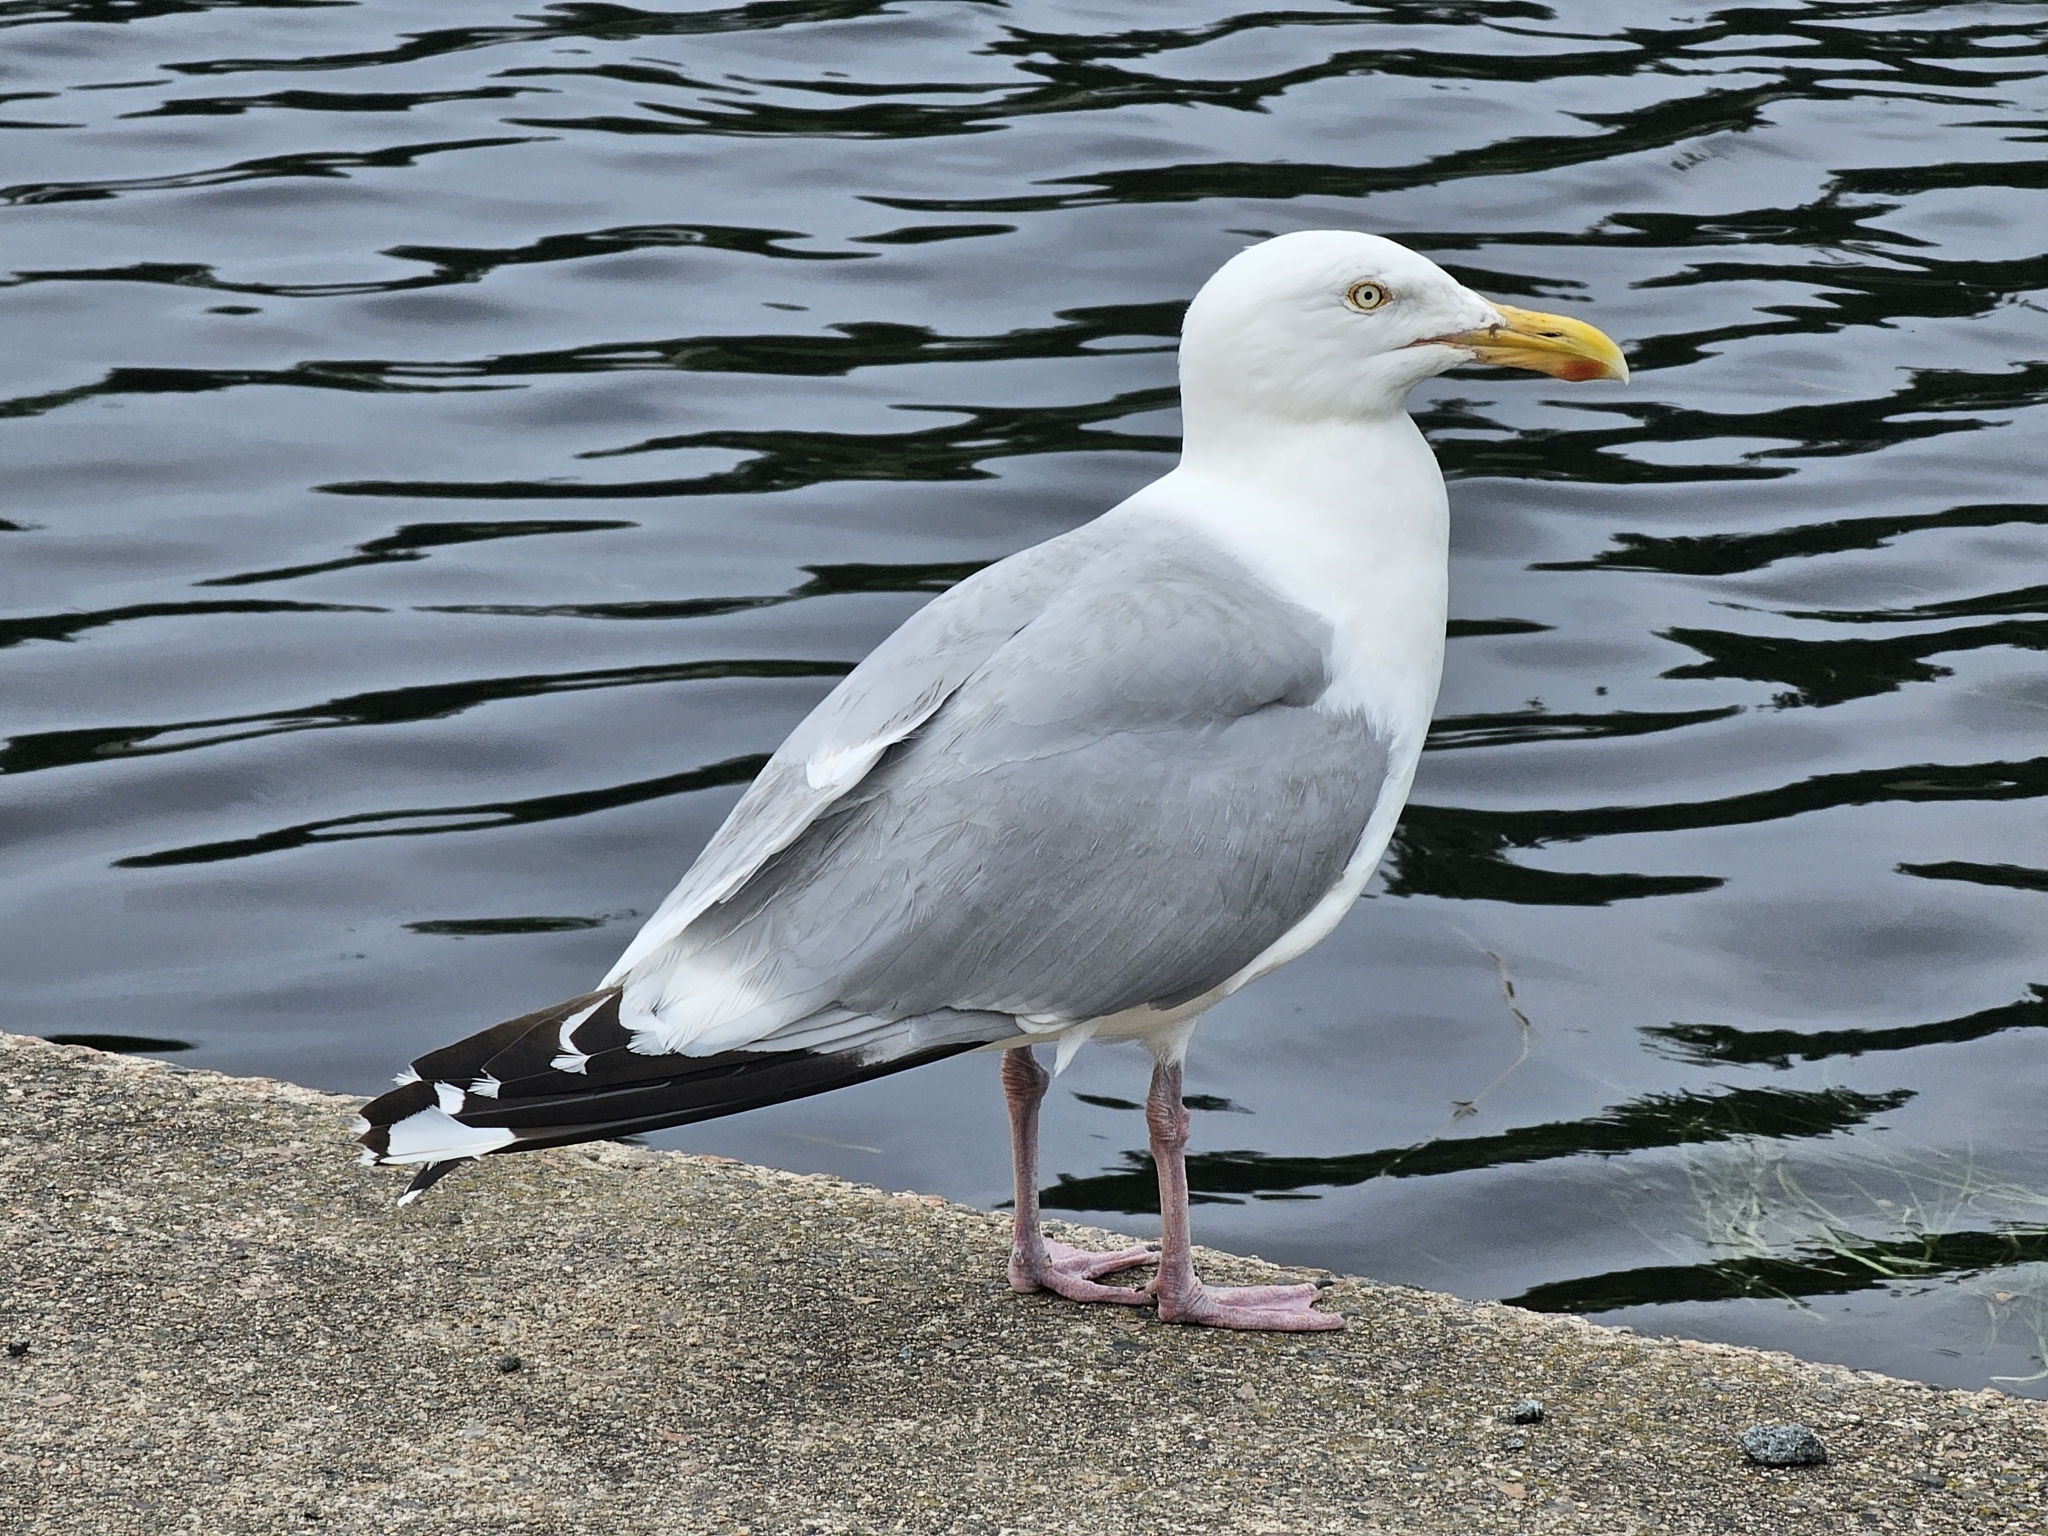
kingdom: Animalia
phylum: Chordata
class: Aves
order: Charadriiformes
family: Laridae
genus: Larus
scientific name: Larus argentatus
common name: Herring gull
